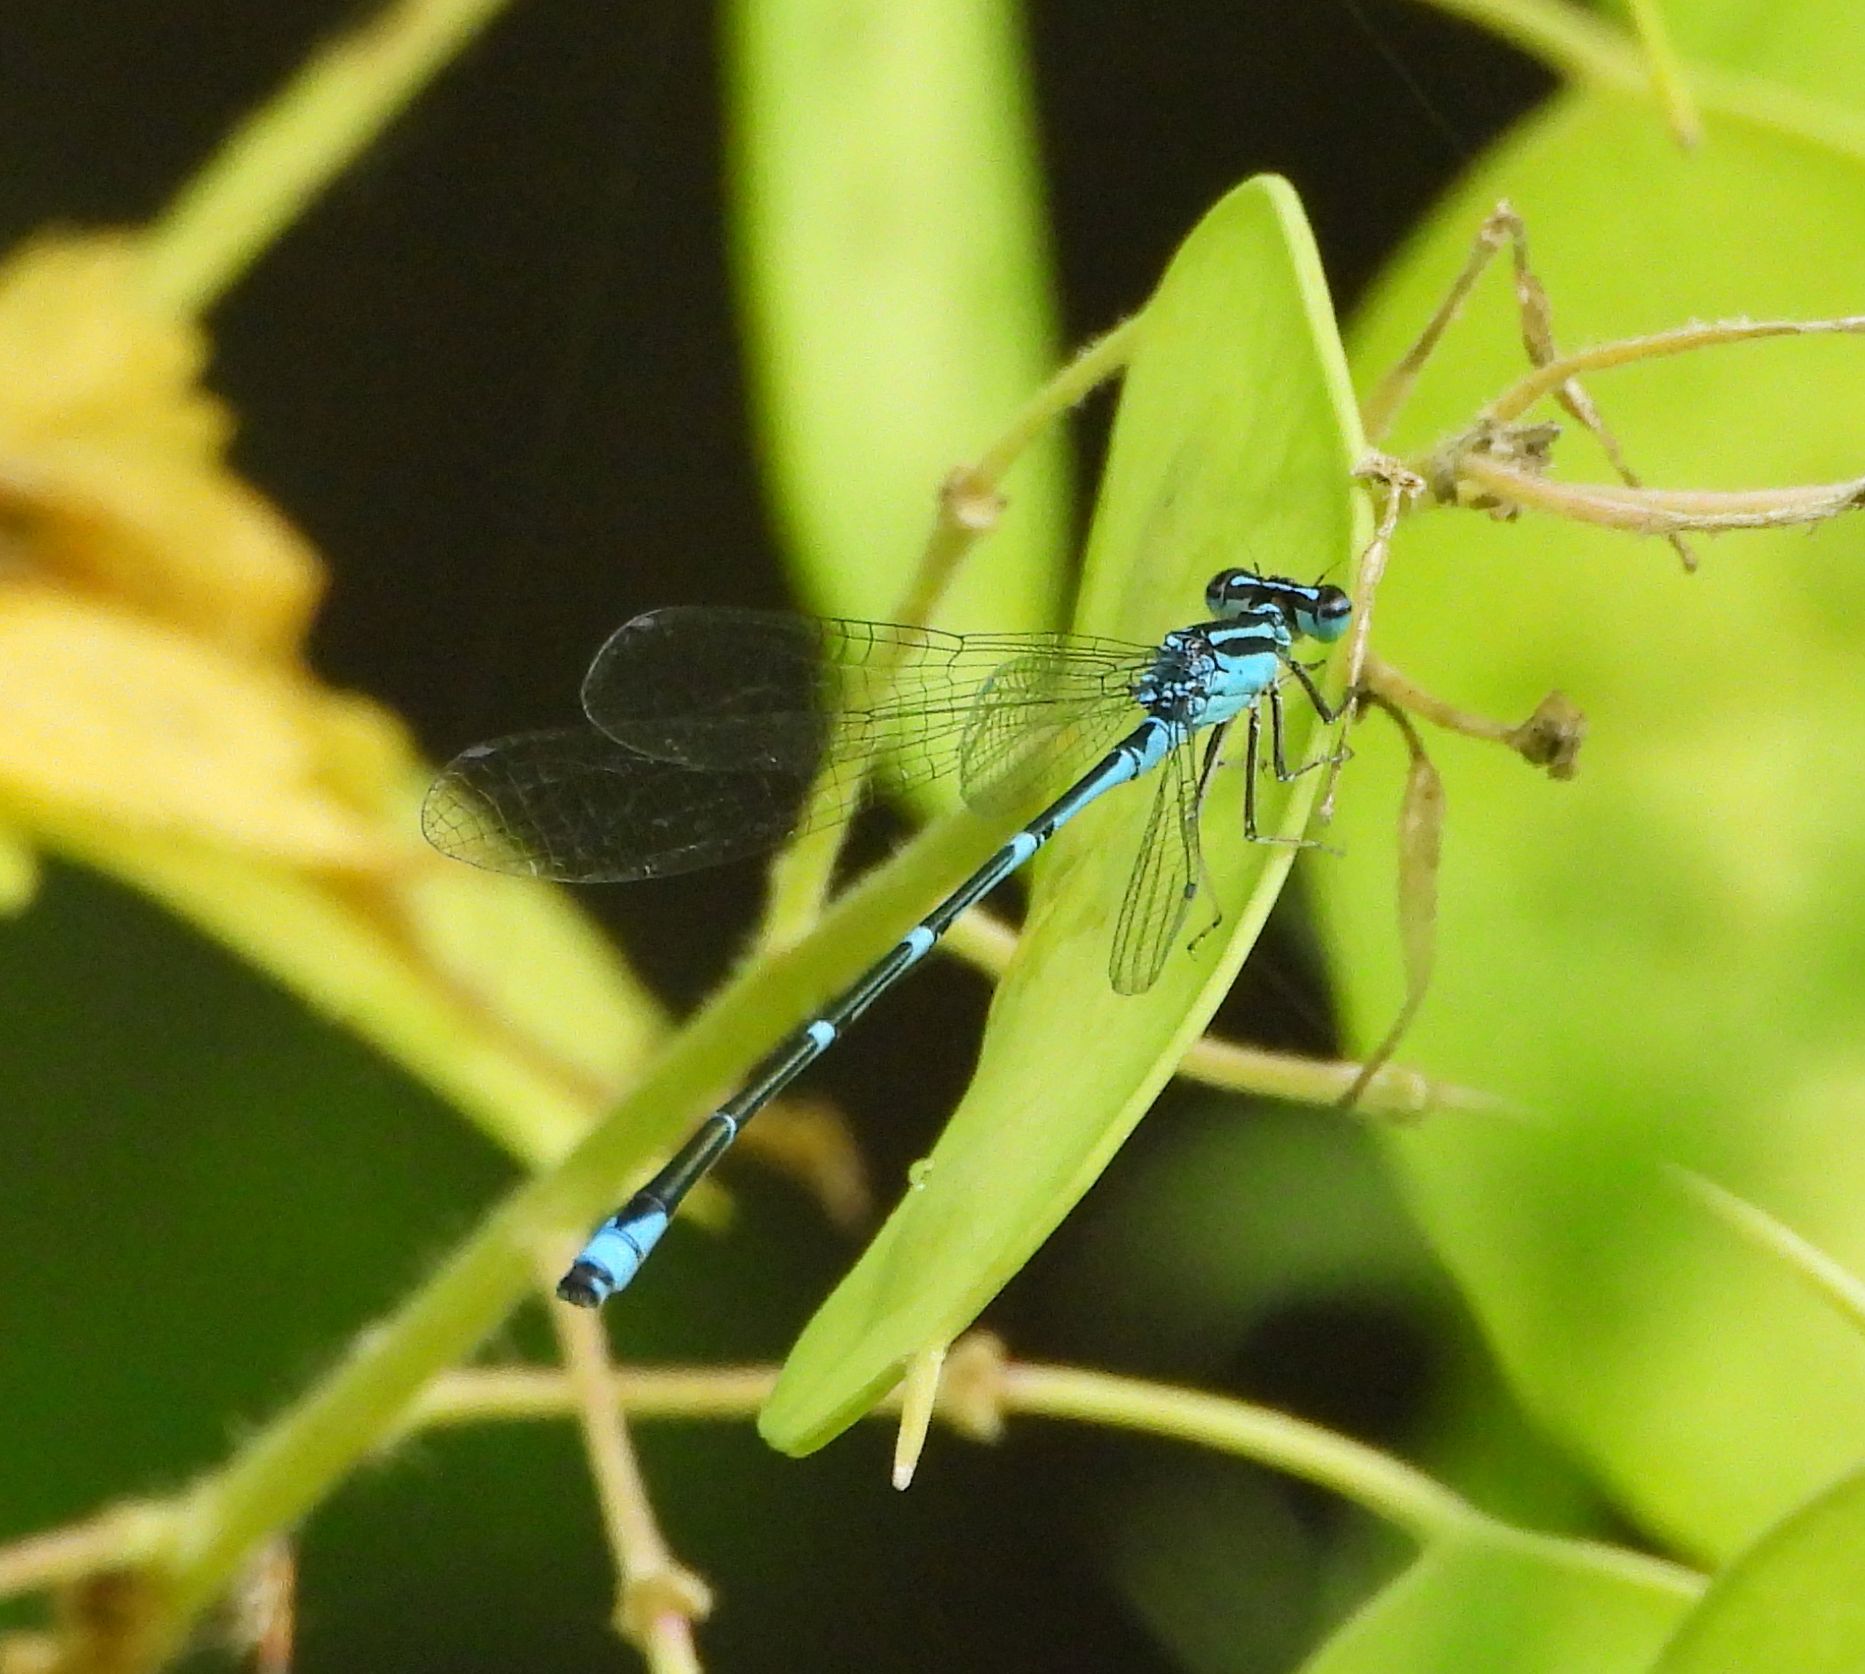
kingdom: Animalia
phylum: Arthropoda
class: Insecta
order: Odonata
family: Coenagrionidae
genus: Enallagma
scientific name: Enallagma exsulans
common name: Stream bluet
